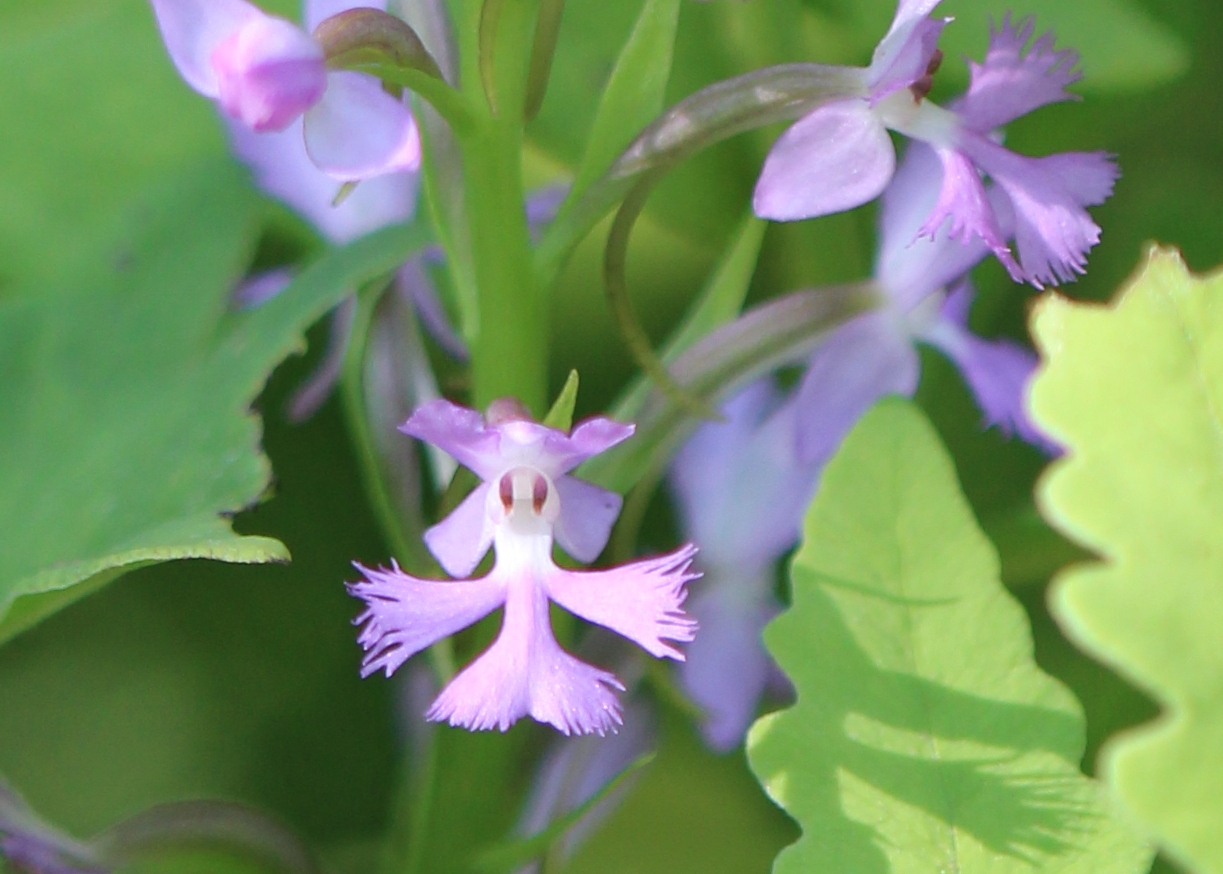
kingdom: Plantae
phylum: Tracheophyta
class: Liliopsida
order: Asparagales
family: Orchidaceae
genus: Platanthera
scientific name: Platanthera psycodes
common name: Lesser purple fringed orchid
